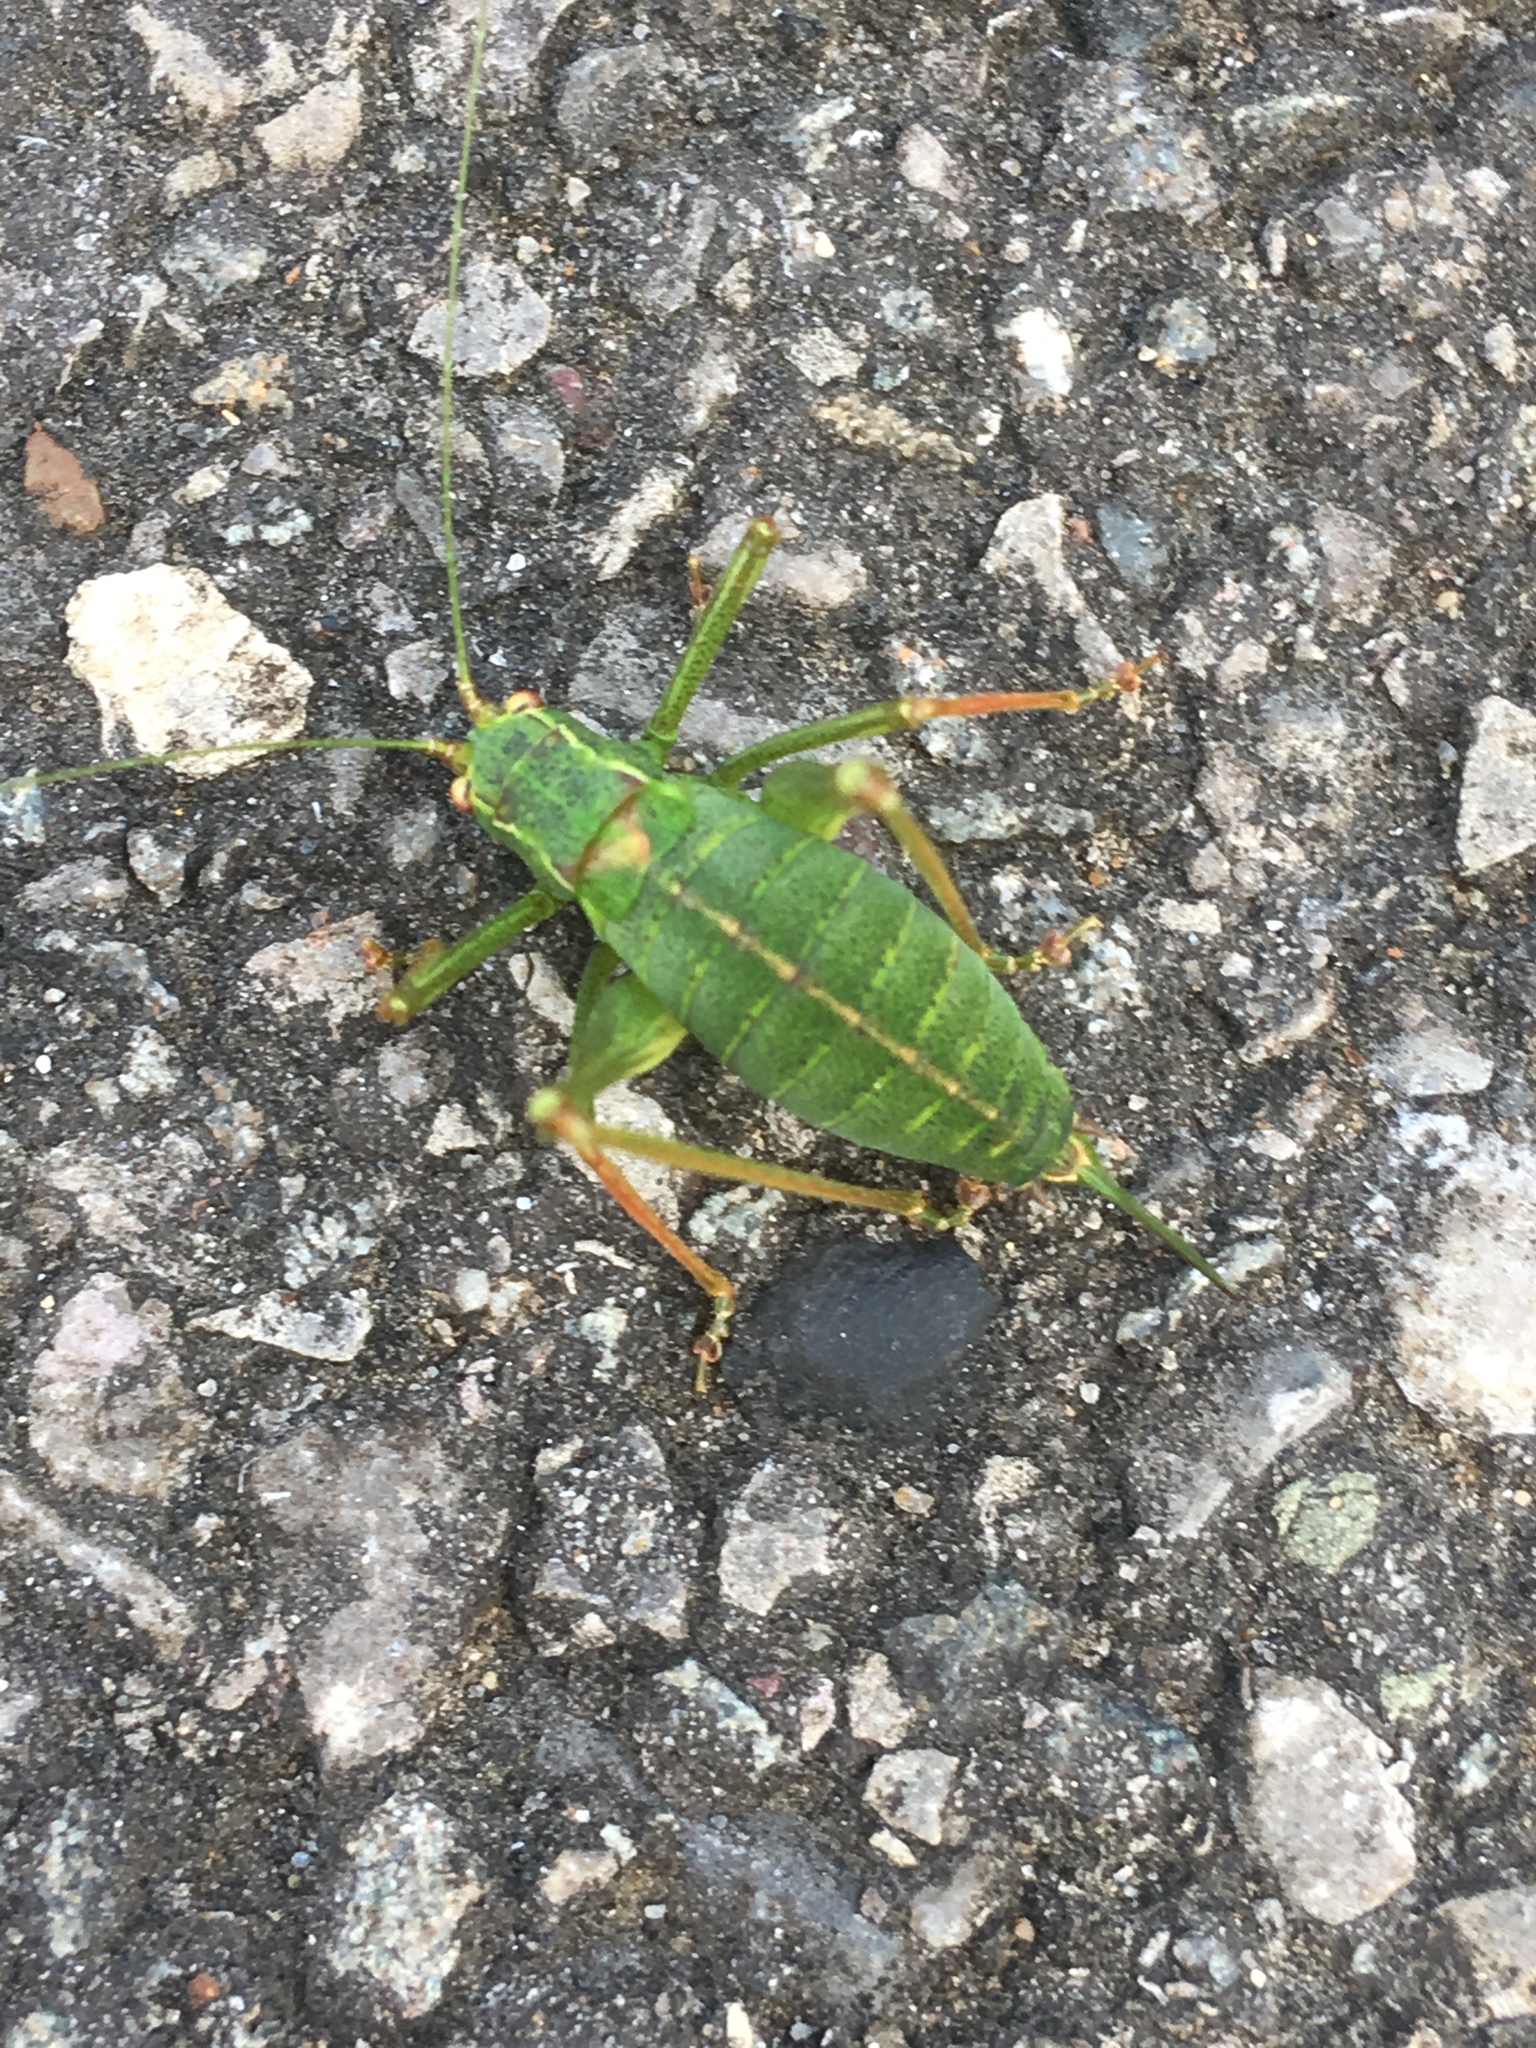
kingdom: Animalia
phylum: Arthropoda
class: Insecta
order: Orthoptera
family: Tettigoniidae
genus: Leptophyes
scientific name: Leptophyes punctatissima
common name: Speckled bush-cricket
